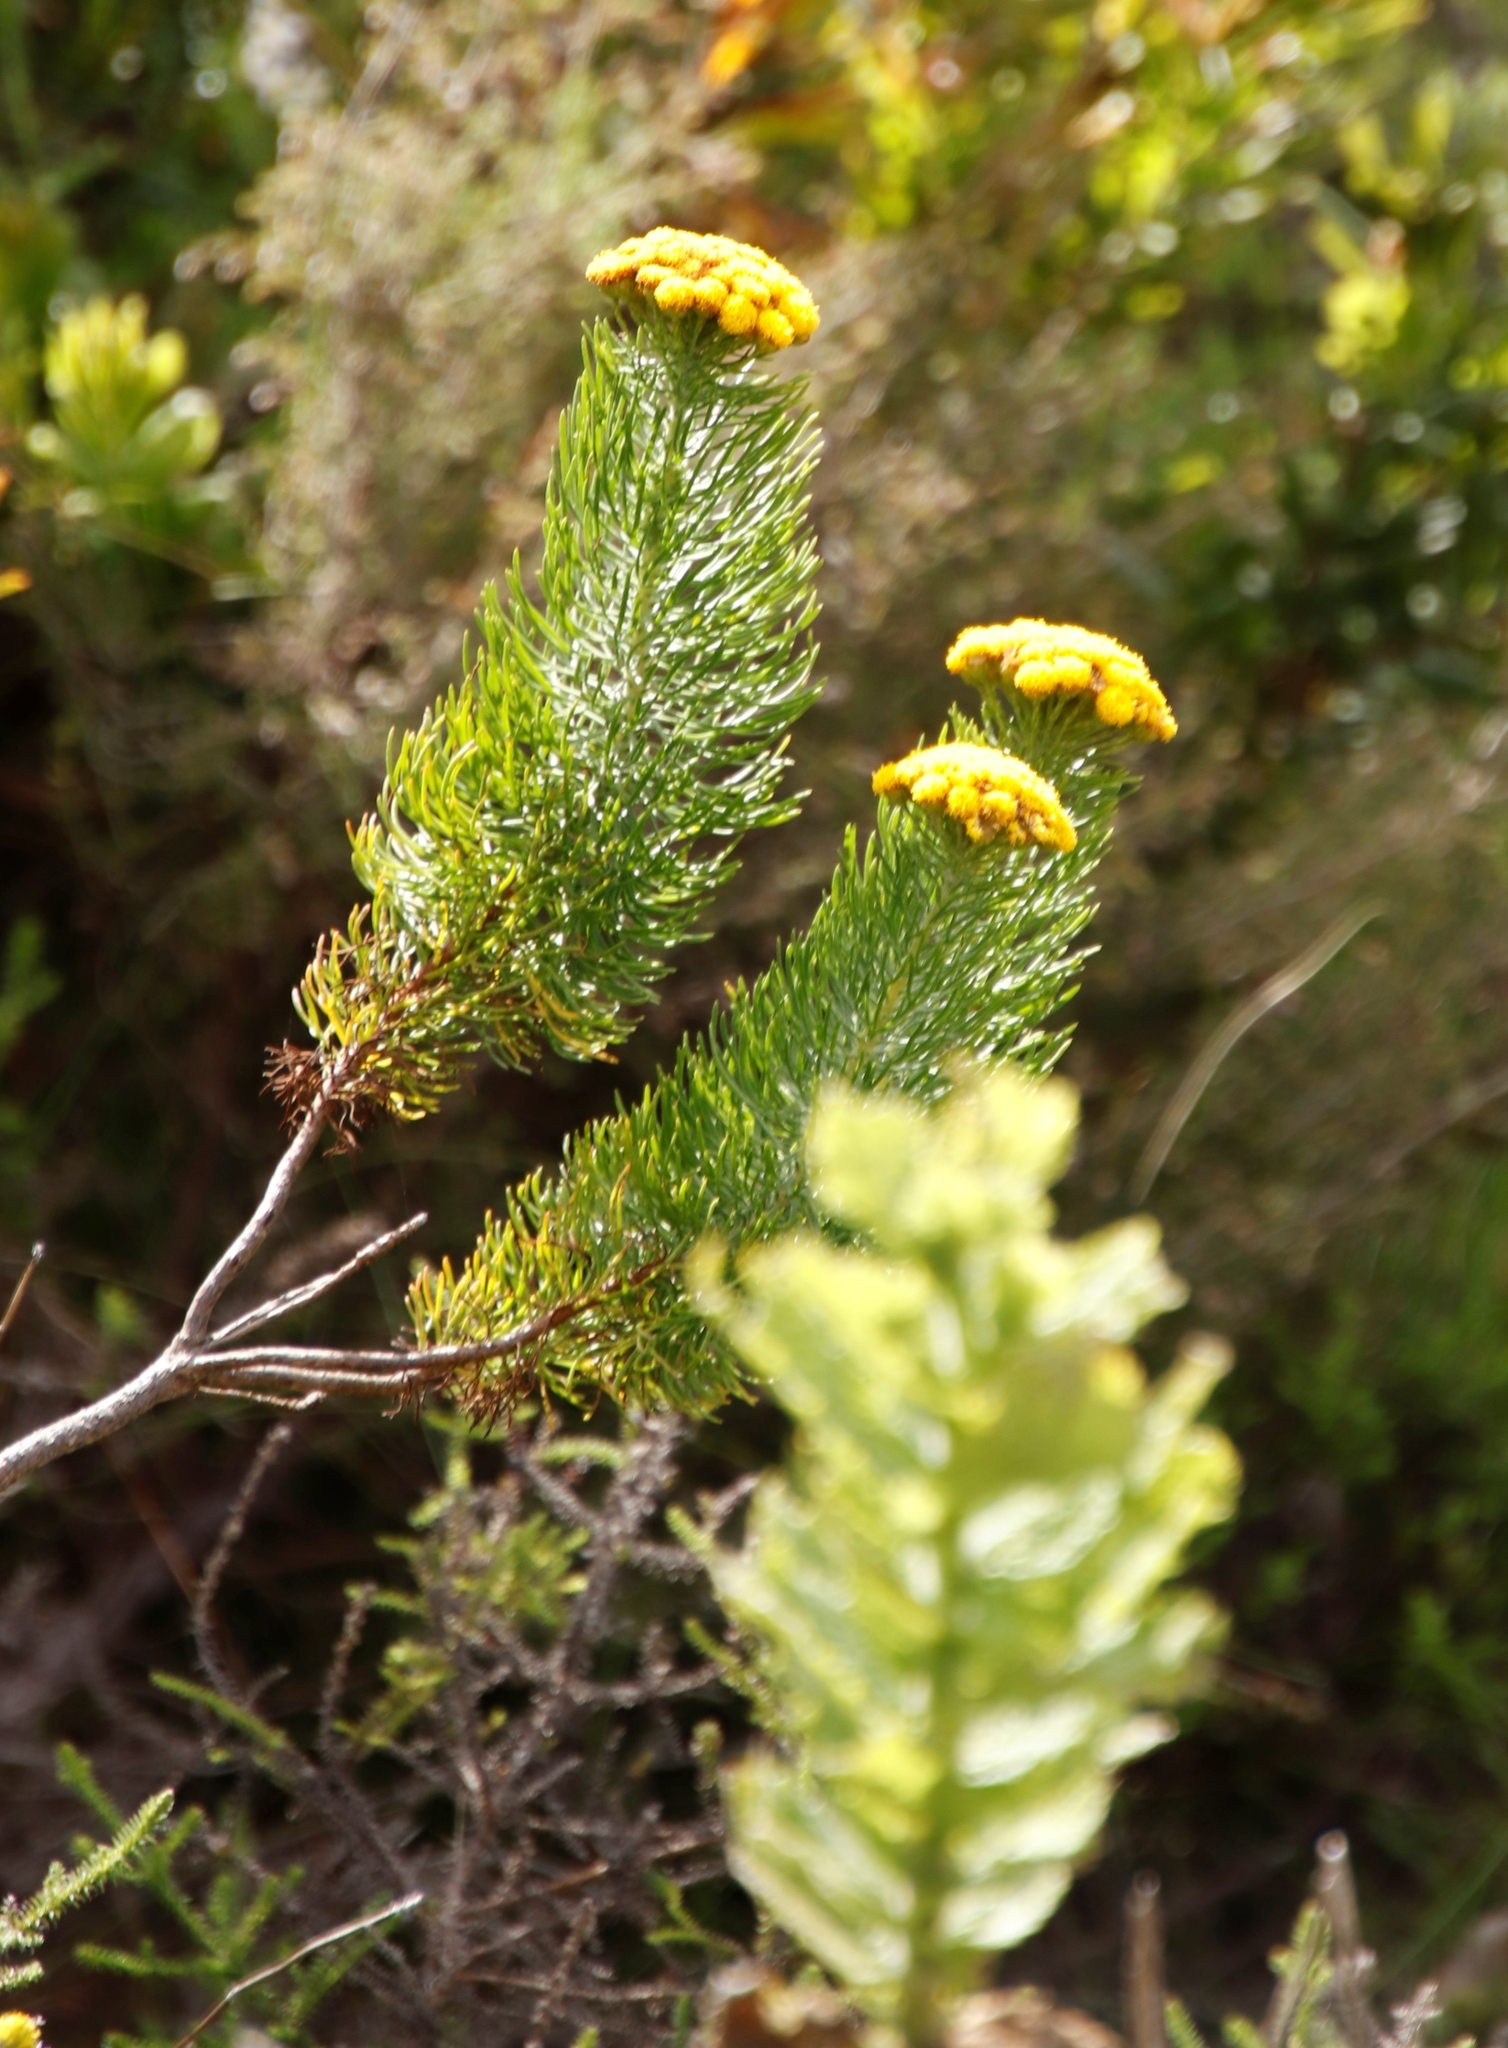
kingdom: Plantae
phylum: Tracheophyta
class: Magnoliopsida
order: Asterales
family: Asteraceae
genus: Athanasia
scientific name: Athanasia crithmifolia
